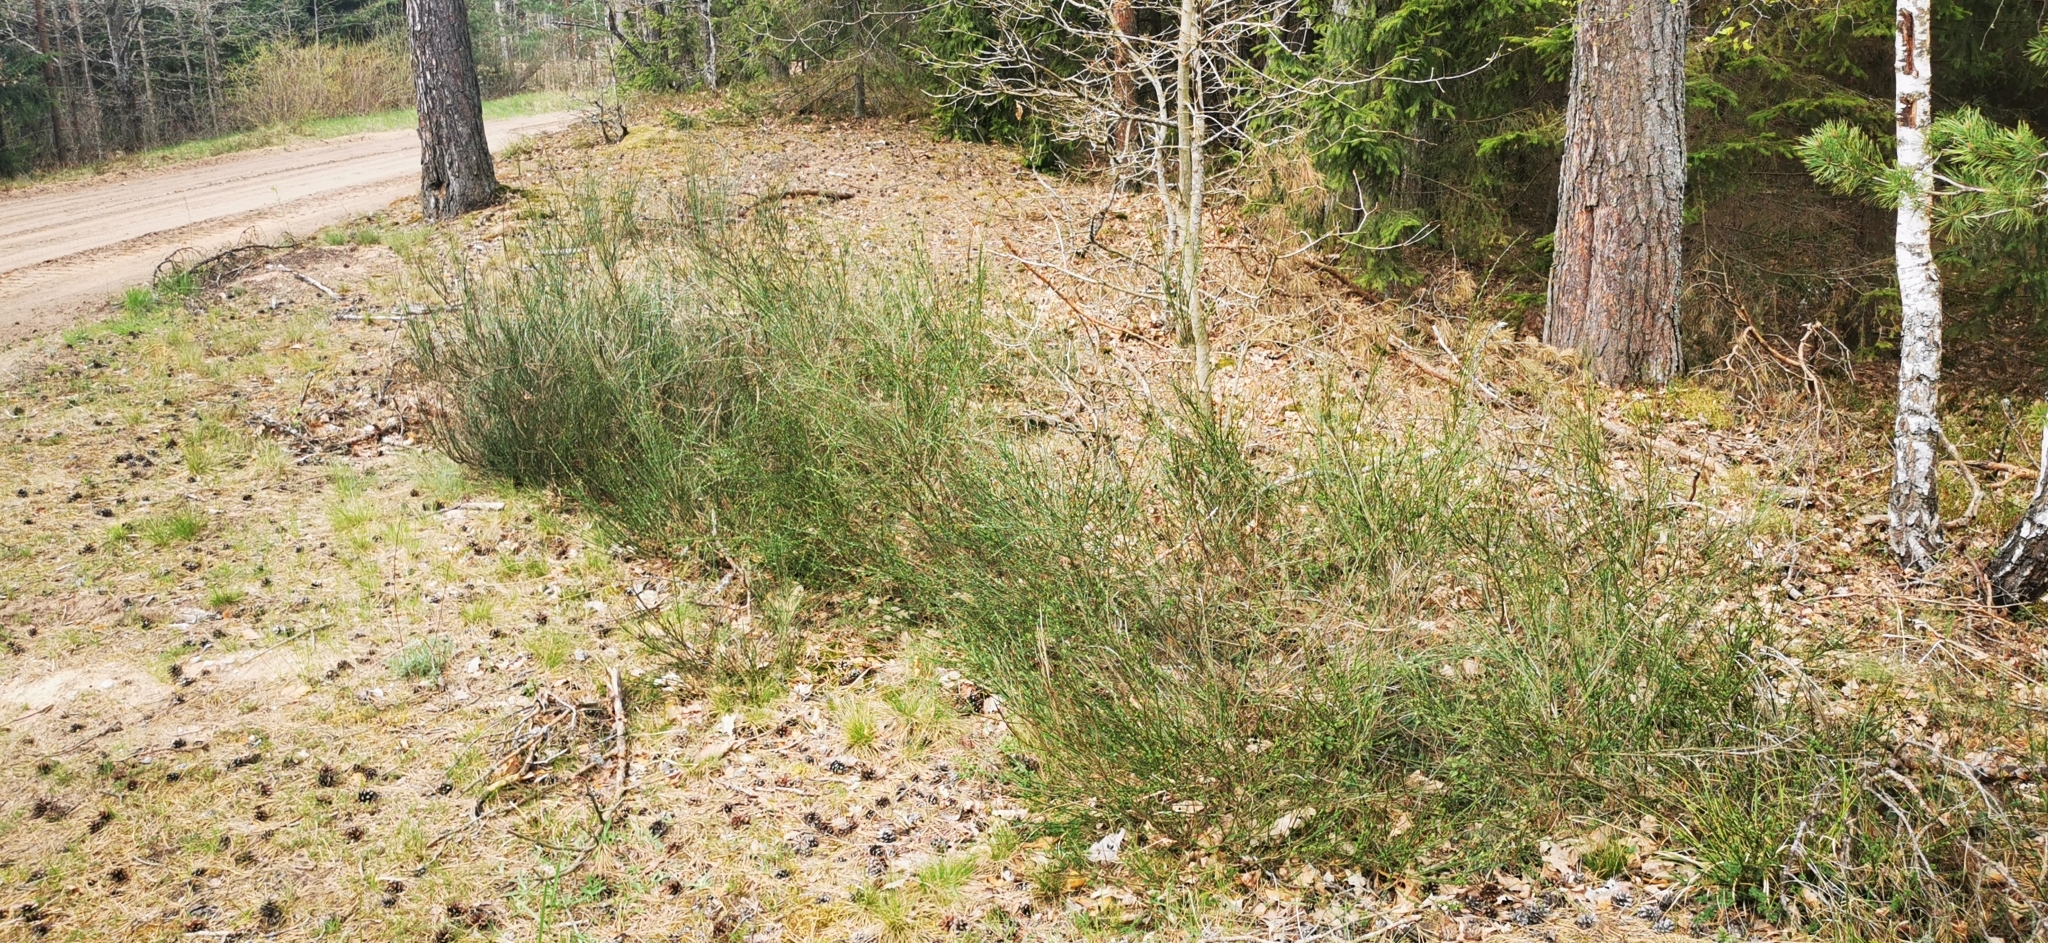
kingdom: Plantae
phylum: Tracheophyta
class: Magnoliopsida
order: Fabales
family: Fabaceae
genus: Cytisus
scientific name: Cytisus scoparius
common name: Scotch broom
